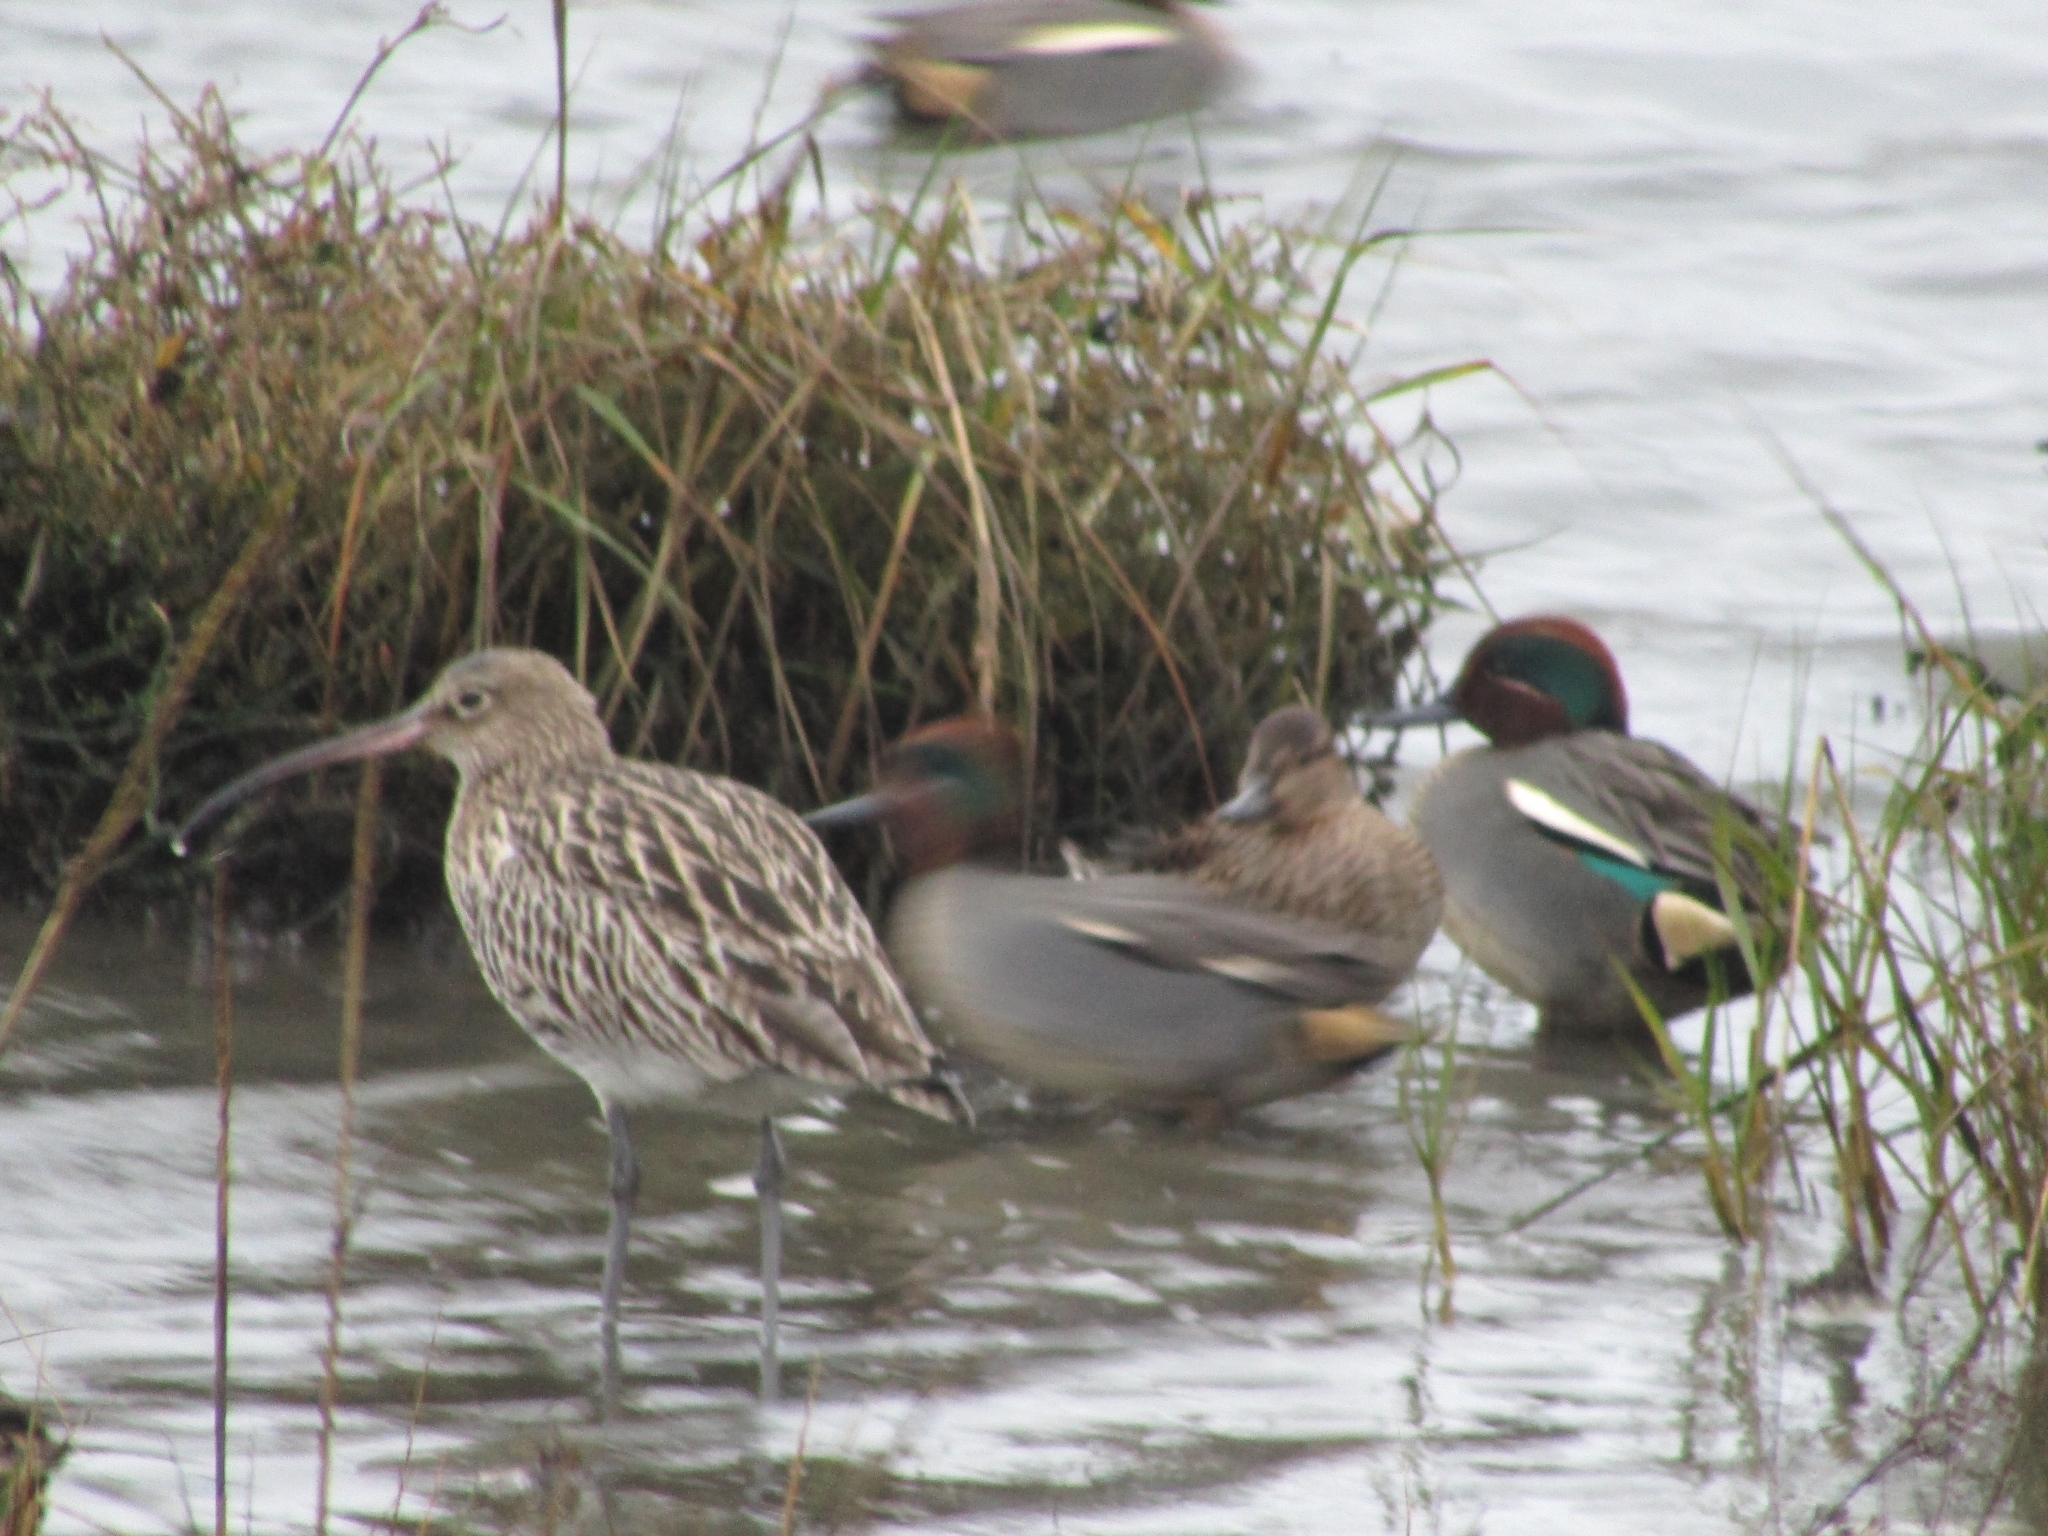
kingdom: Animalia
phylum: Chordata
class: Aves
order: Charadriiformes
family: Scolopacidae
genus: Numenius
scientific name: Numenius arquata
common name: Eurasian curlew
